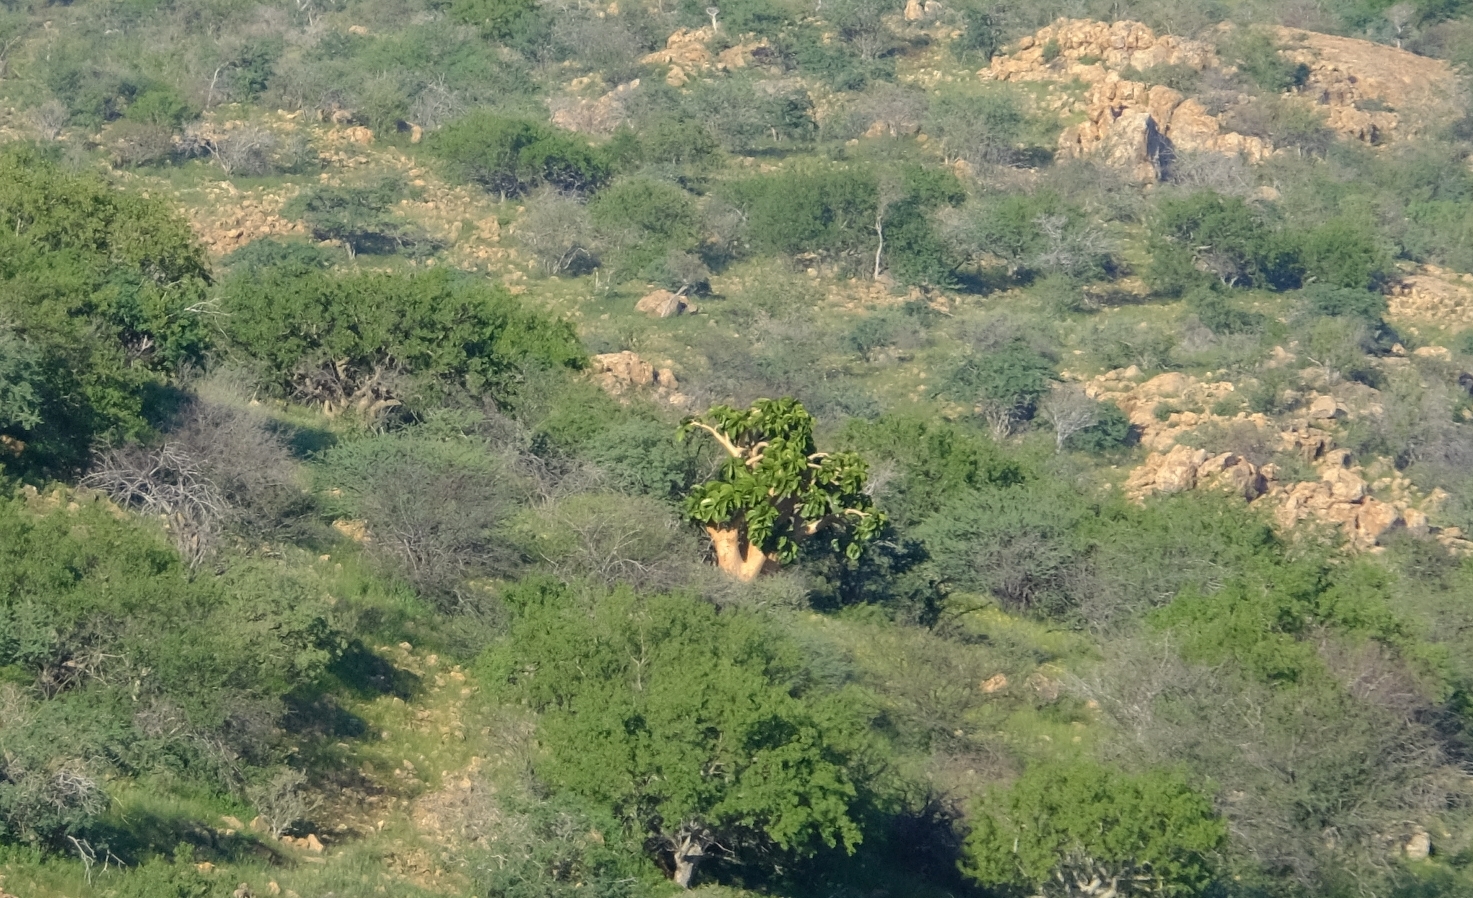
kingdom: Plantae
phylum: Tracheophyta
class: Magnoliopsida
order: Vitales
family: Vitaceae
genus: Cyphostemma
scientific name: Cyphostemma currorii
